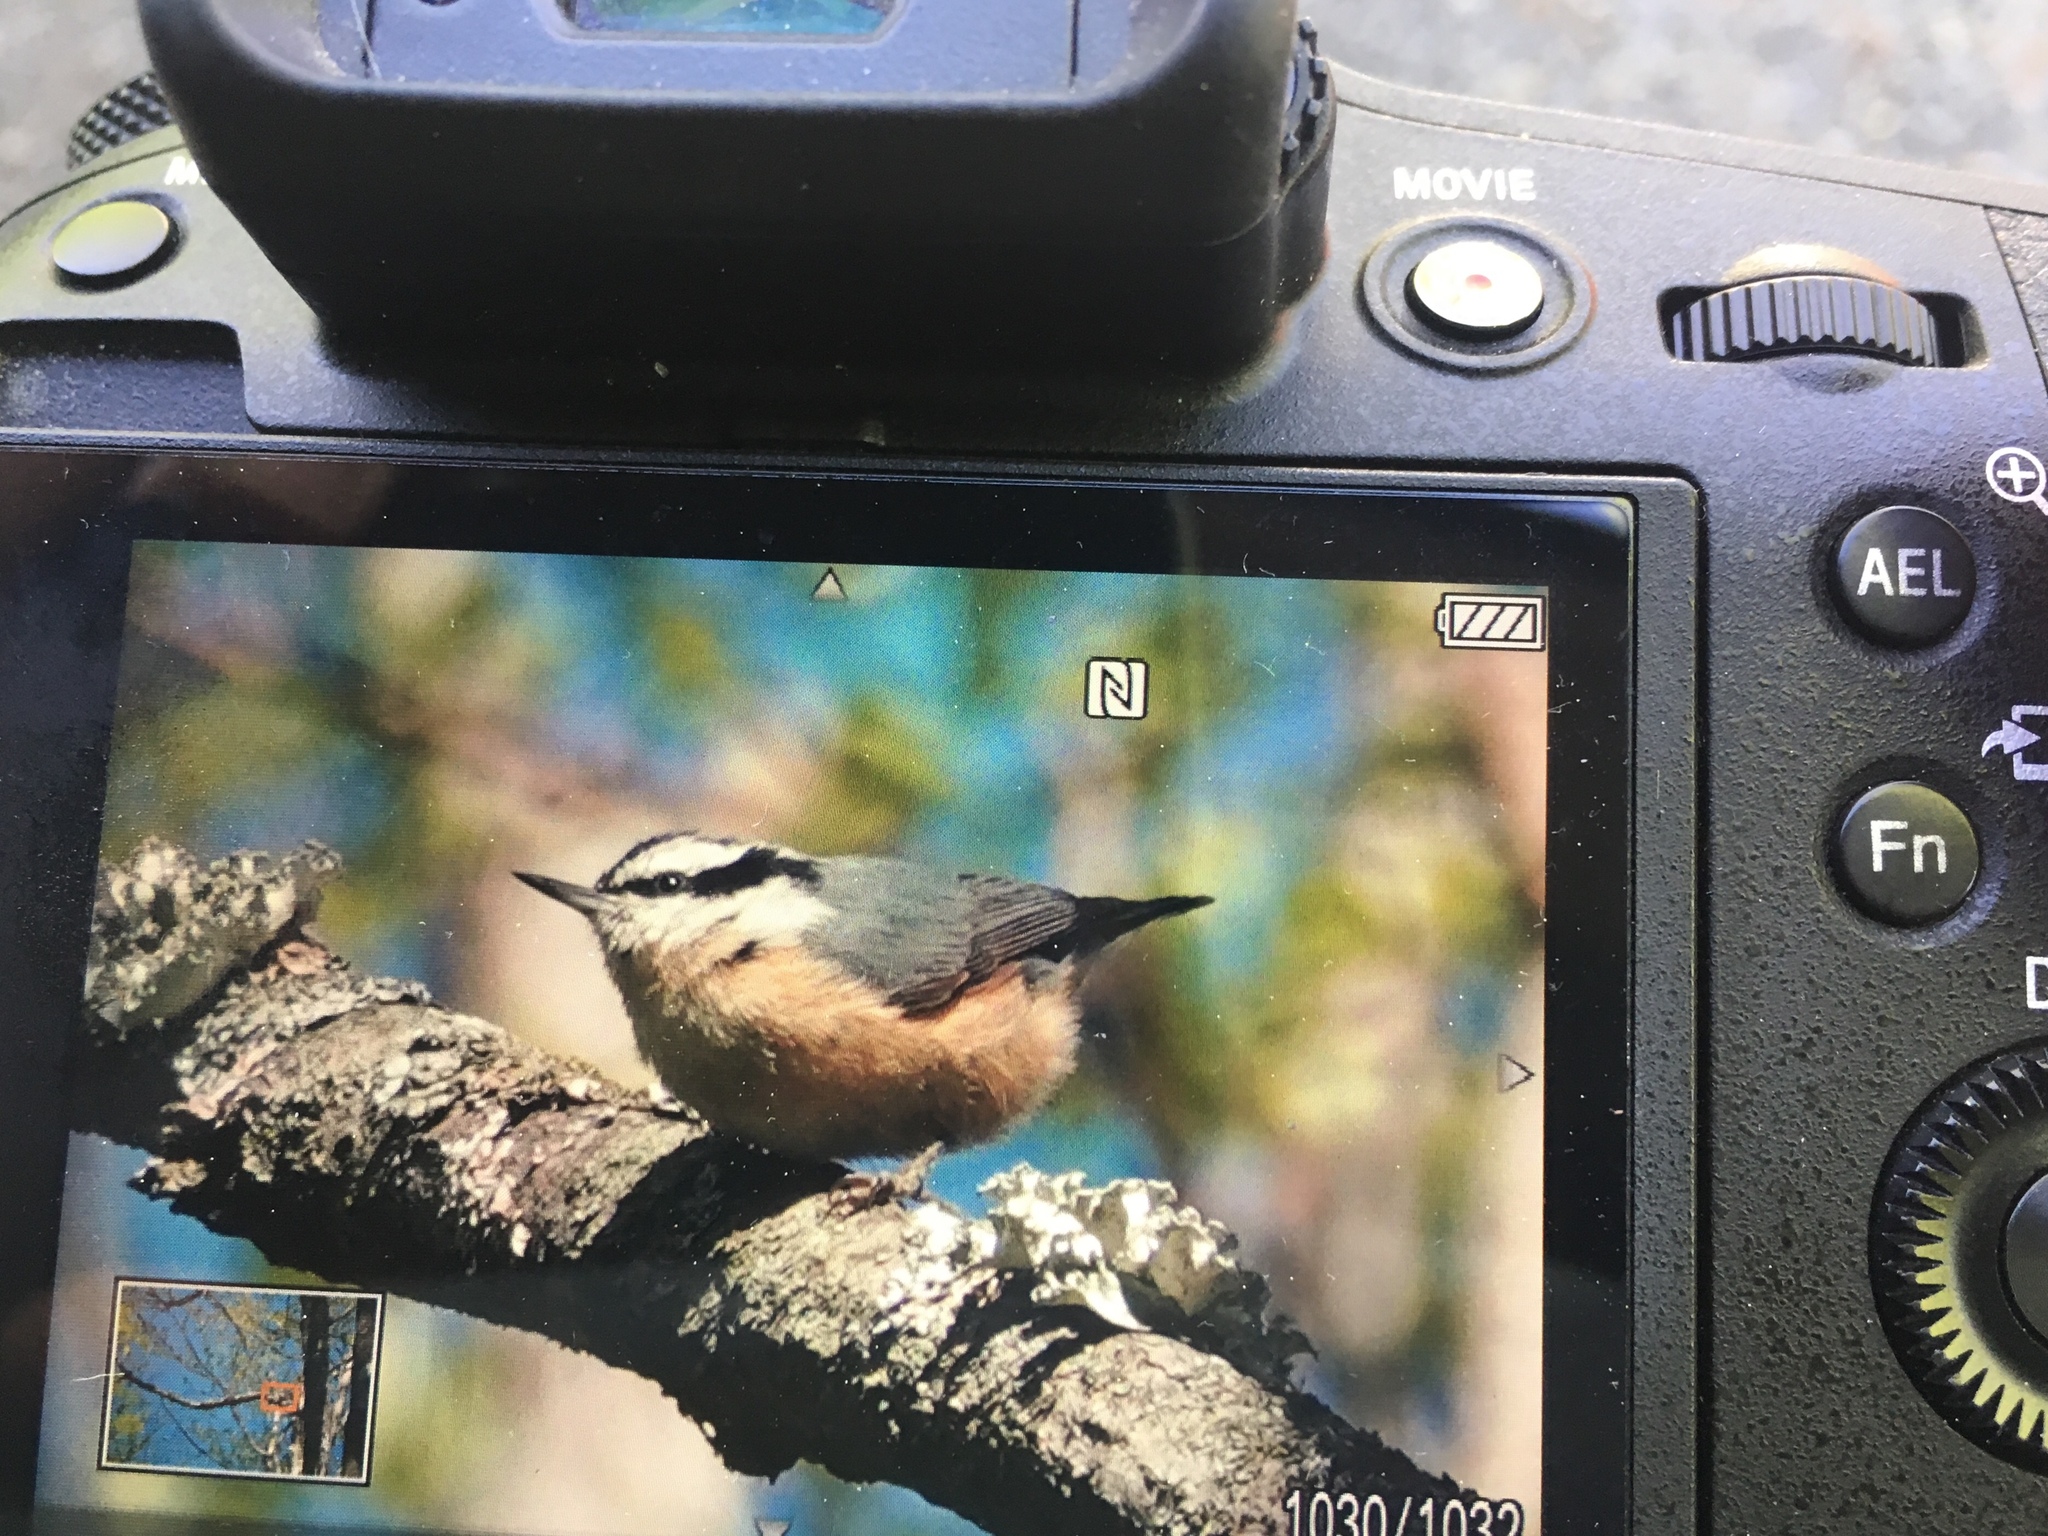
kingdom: Animalia
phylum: Chordata
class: Aves
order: Passeriformes
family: Sittidae
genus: Sitta
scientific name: Sitta canadensis
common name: Red-breasted nuthatch
